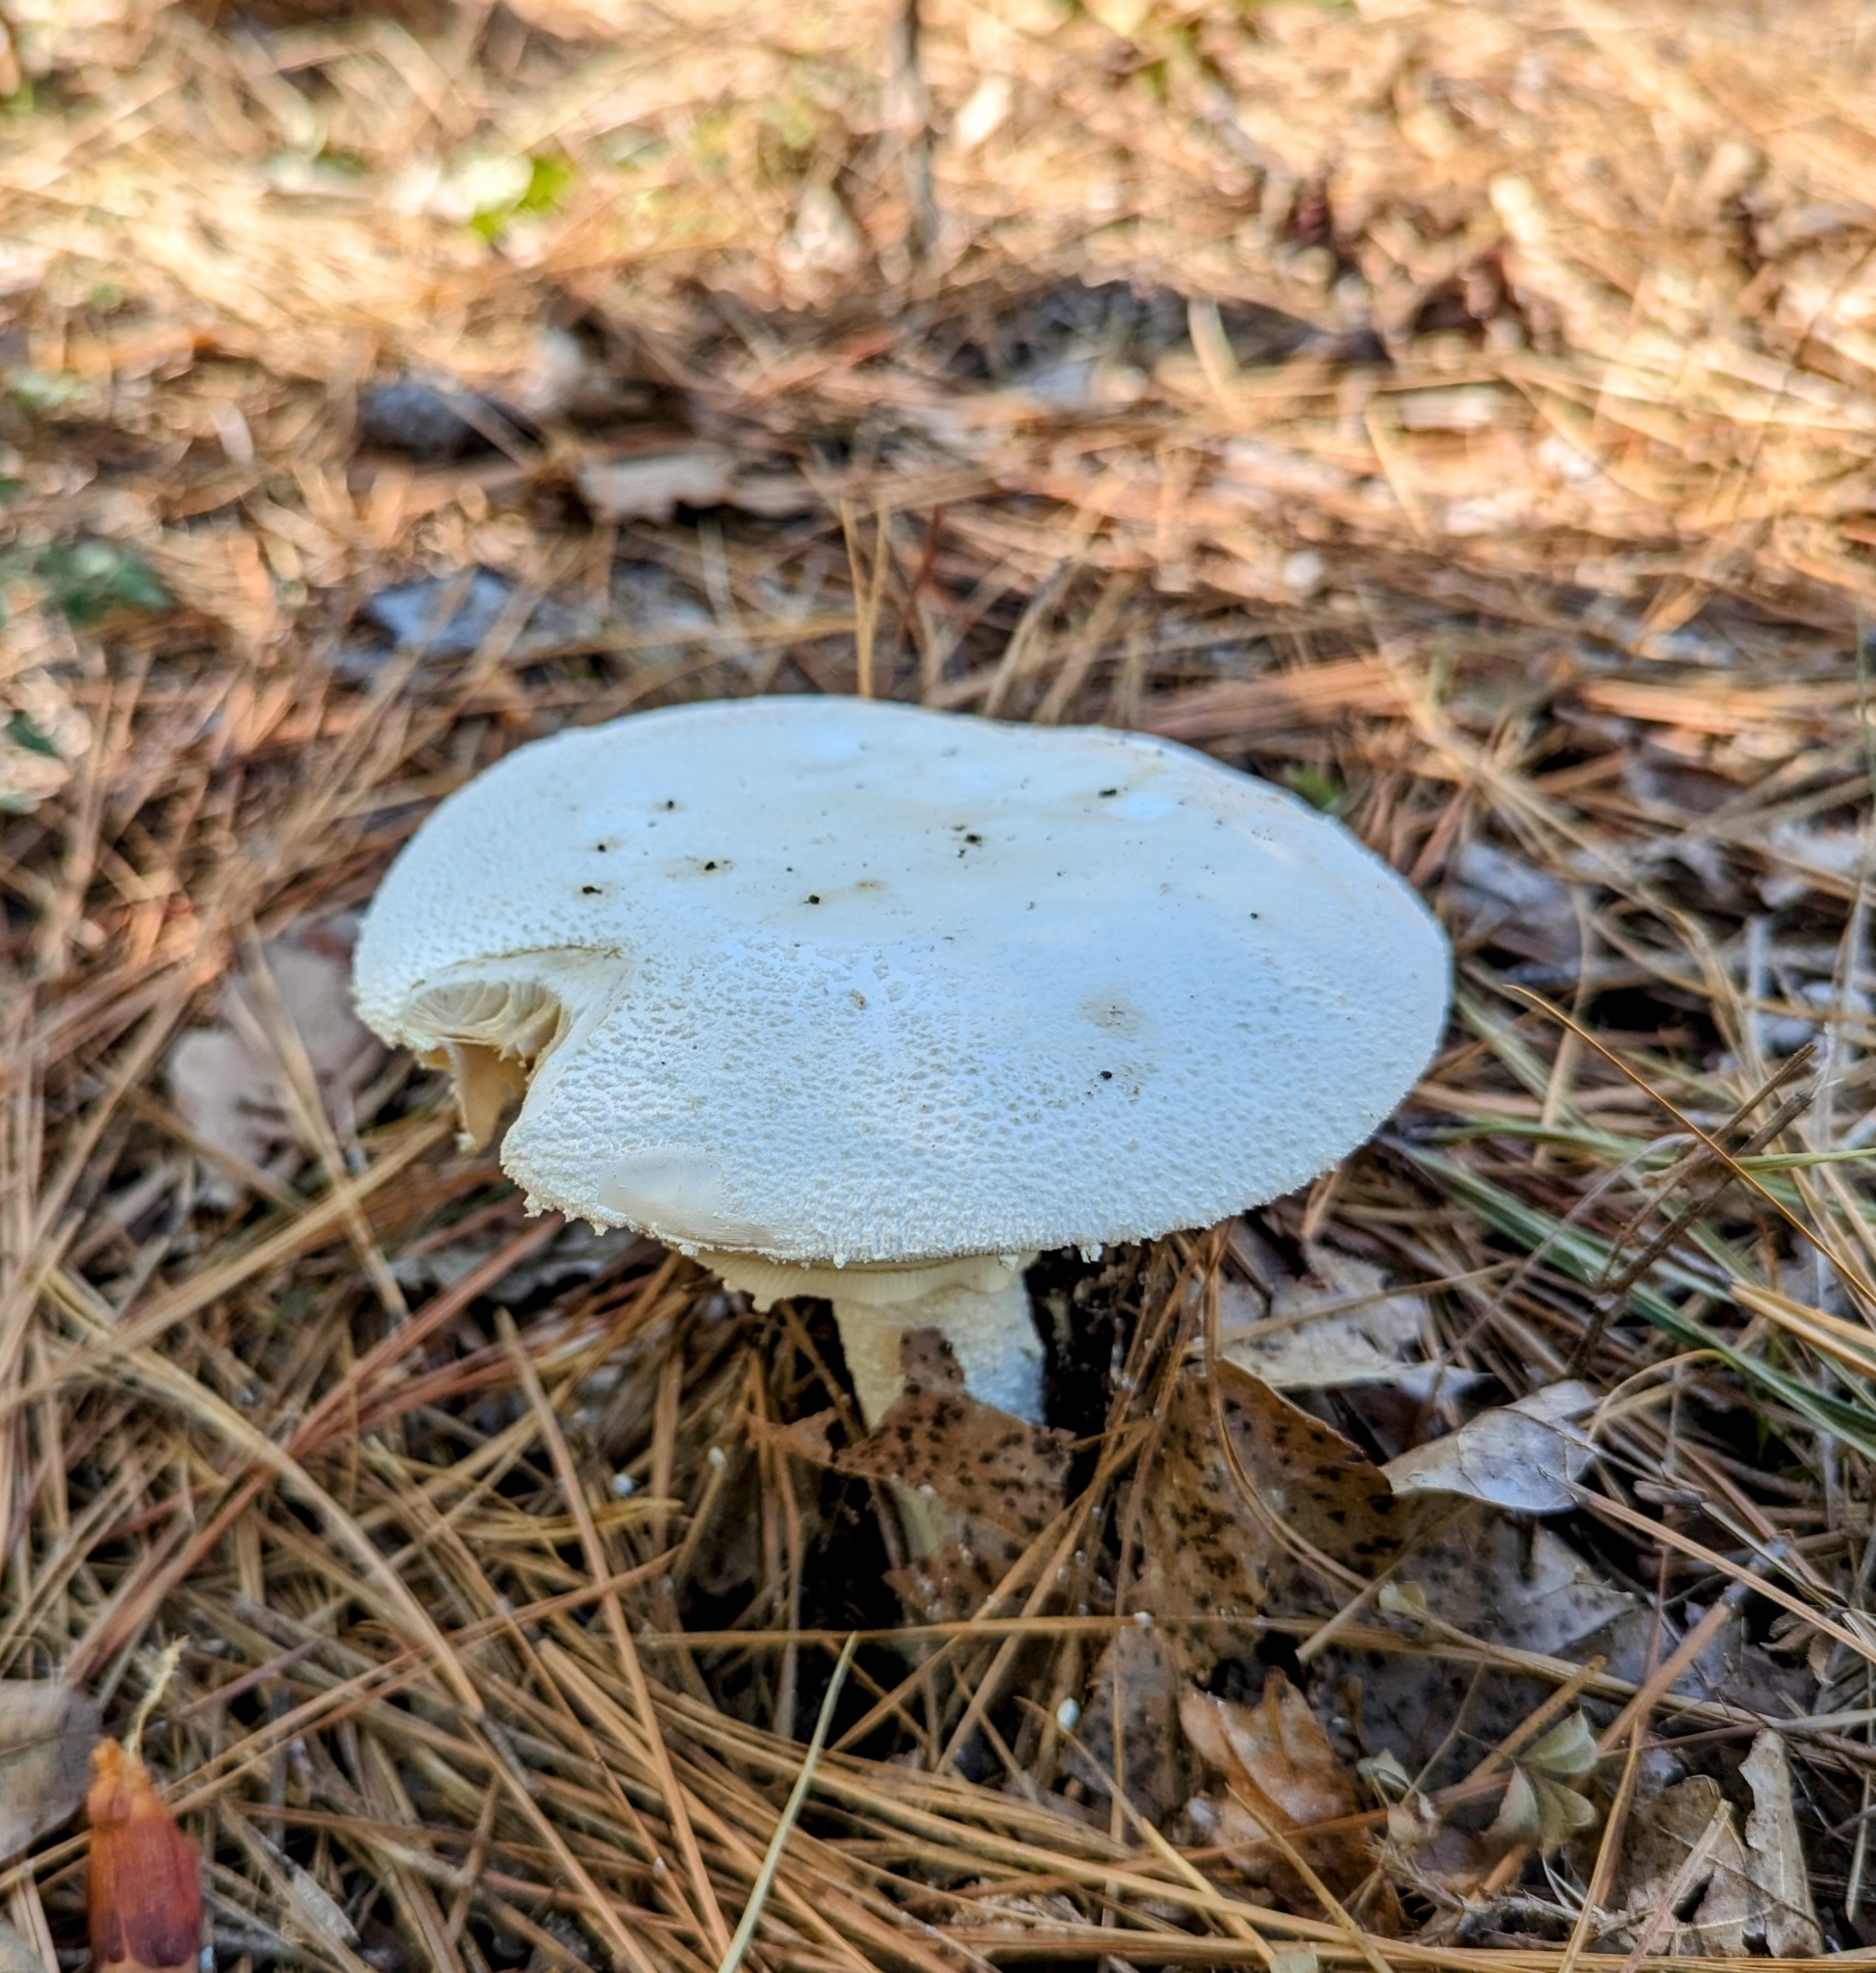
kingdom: Fungi
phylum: Basidiomycota
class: Agaricomycetes
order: Agaricales
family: Amanitaceae
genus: Amanita
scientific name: Amanita polypyramis
